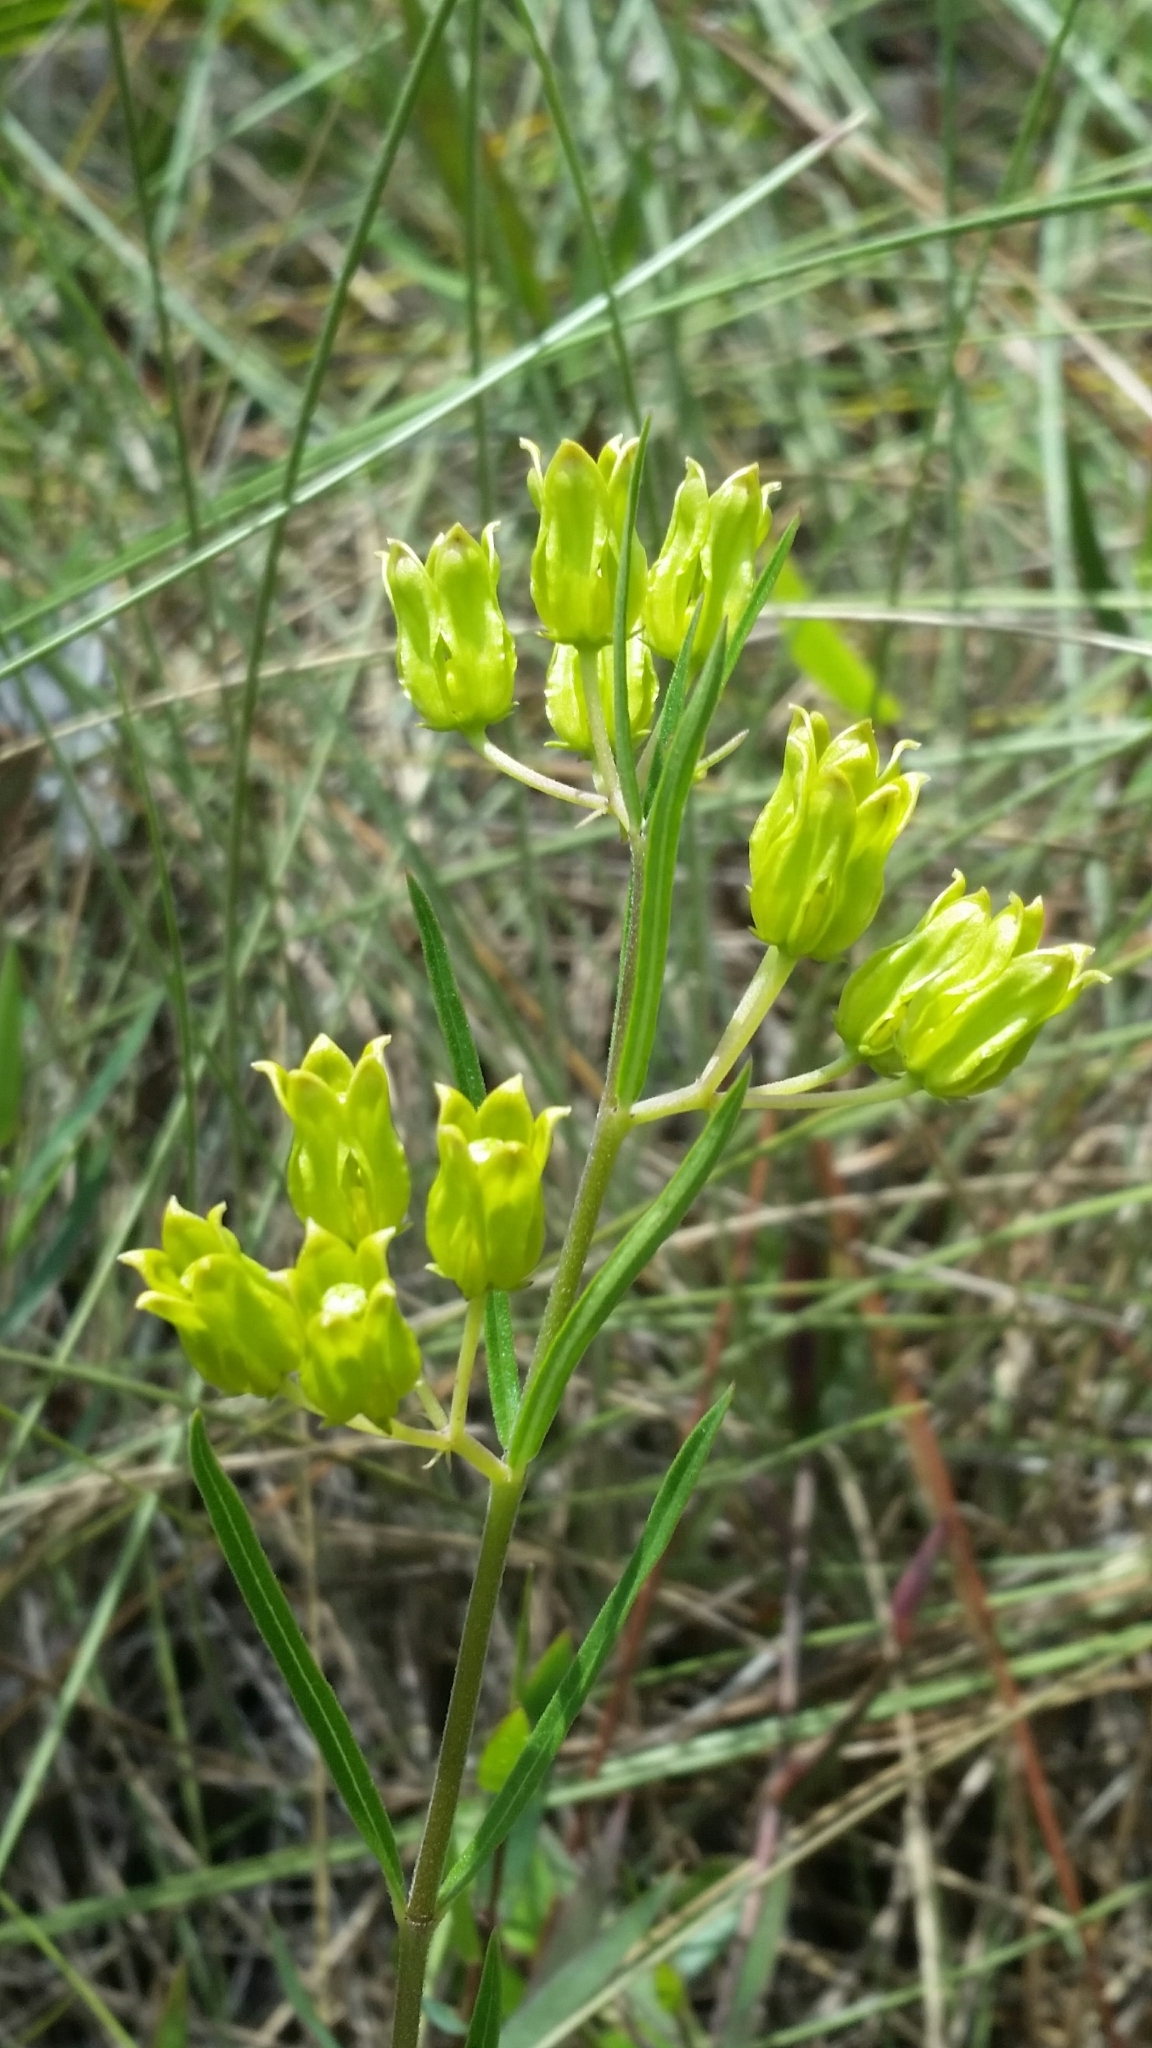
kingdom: Plantae
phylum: Tracheophyta
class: Magnoliopsida
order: Gentianales
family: Apocynaceae
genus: Asclepias
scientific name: Asclepias pedicellata
